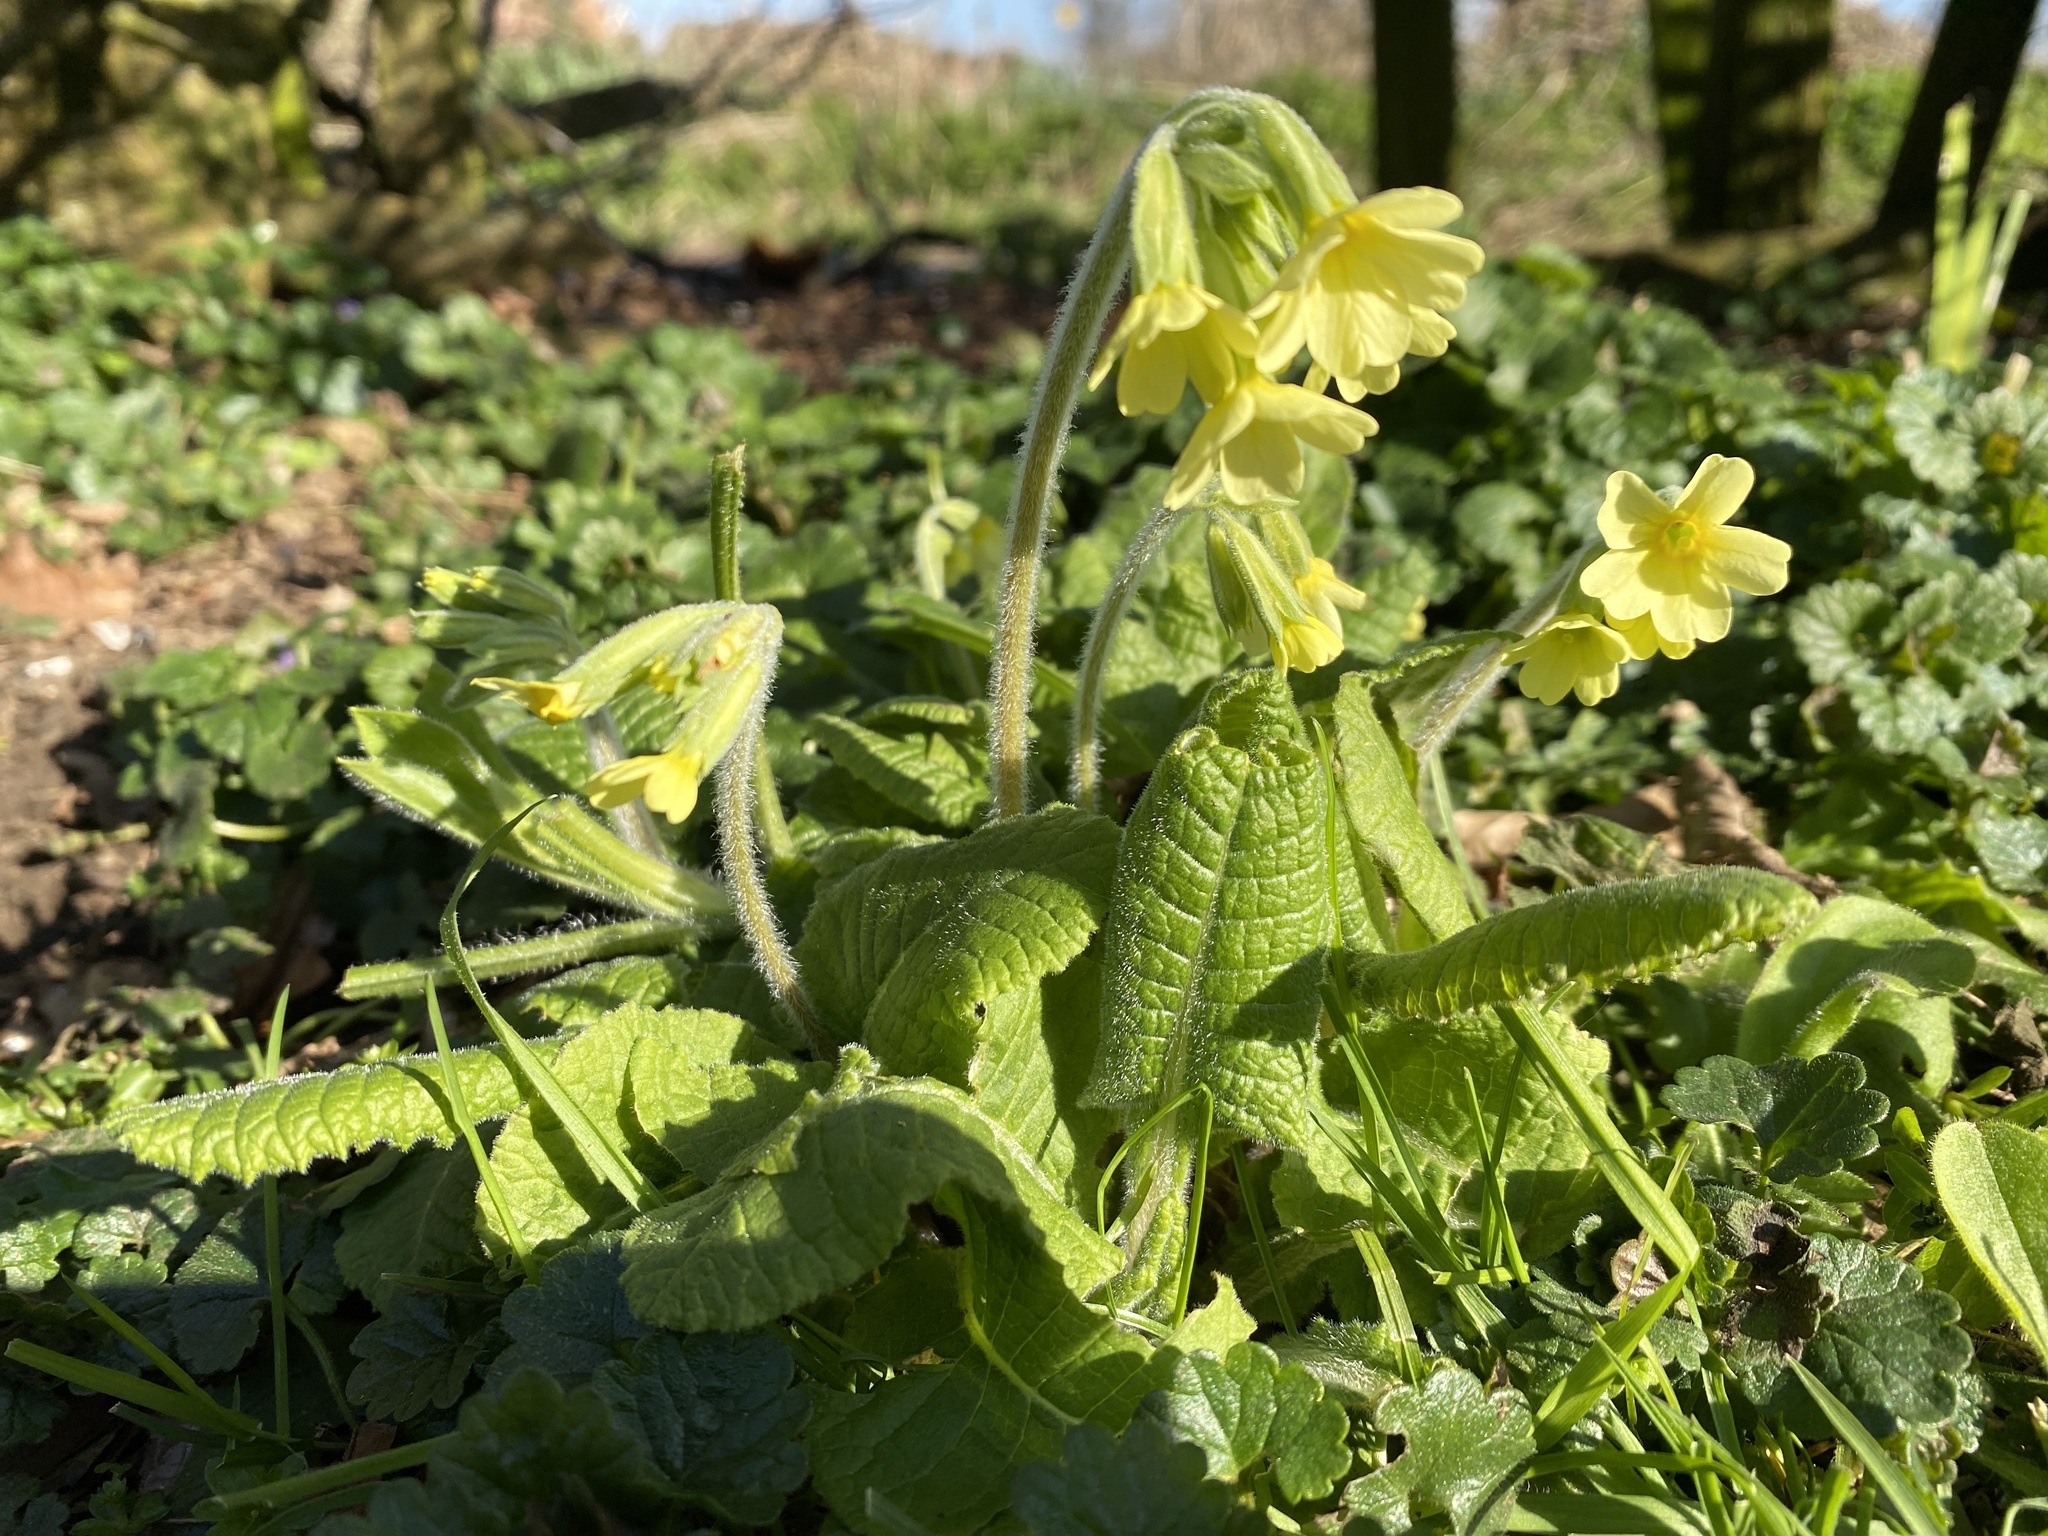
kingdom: Plantae
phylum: Tracheophyta
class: Magnoliopsida
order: Ericales
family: Primulaceae
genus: Primula
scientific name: Primula polyantha
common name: False oxlip
